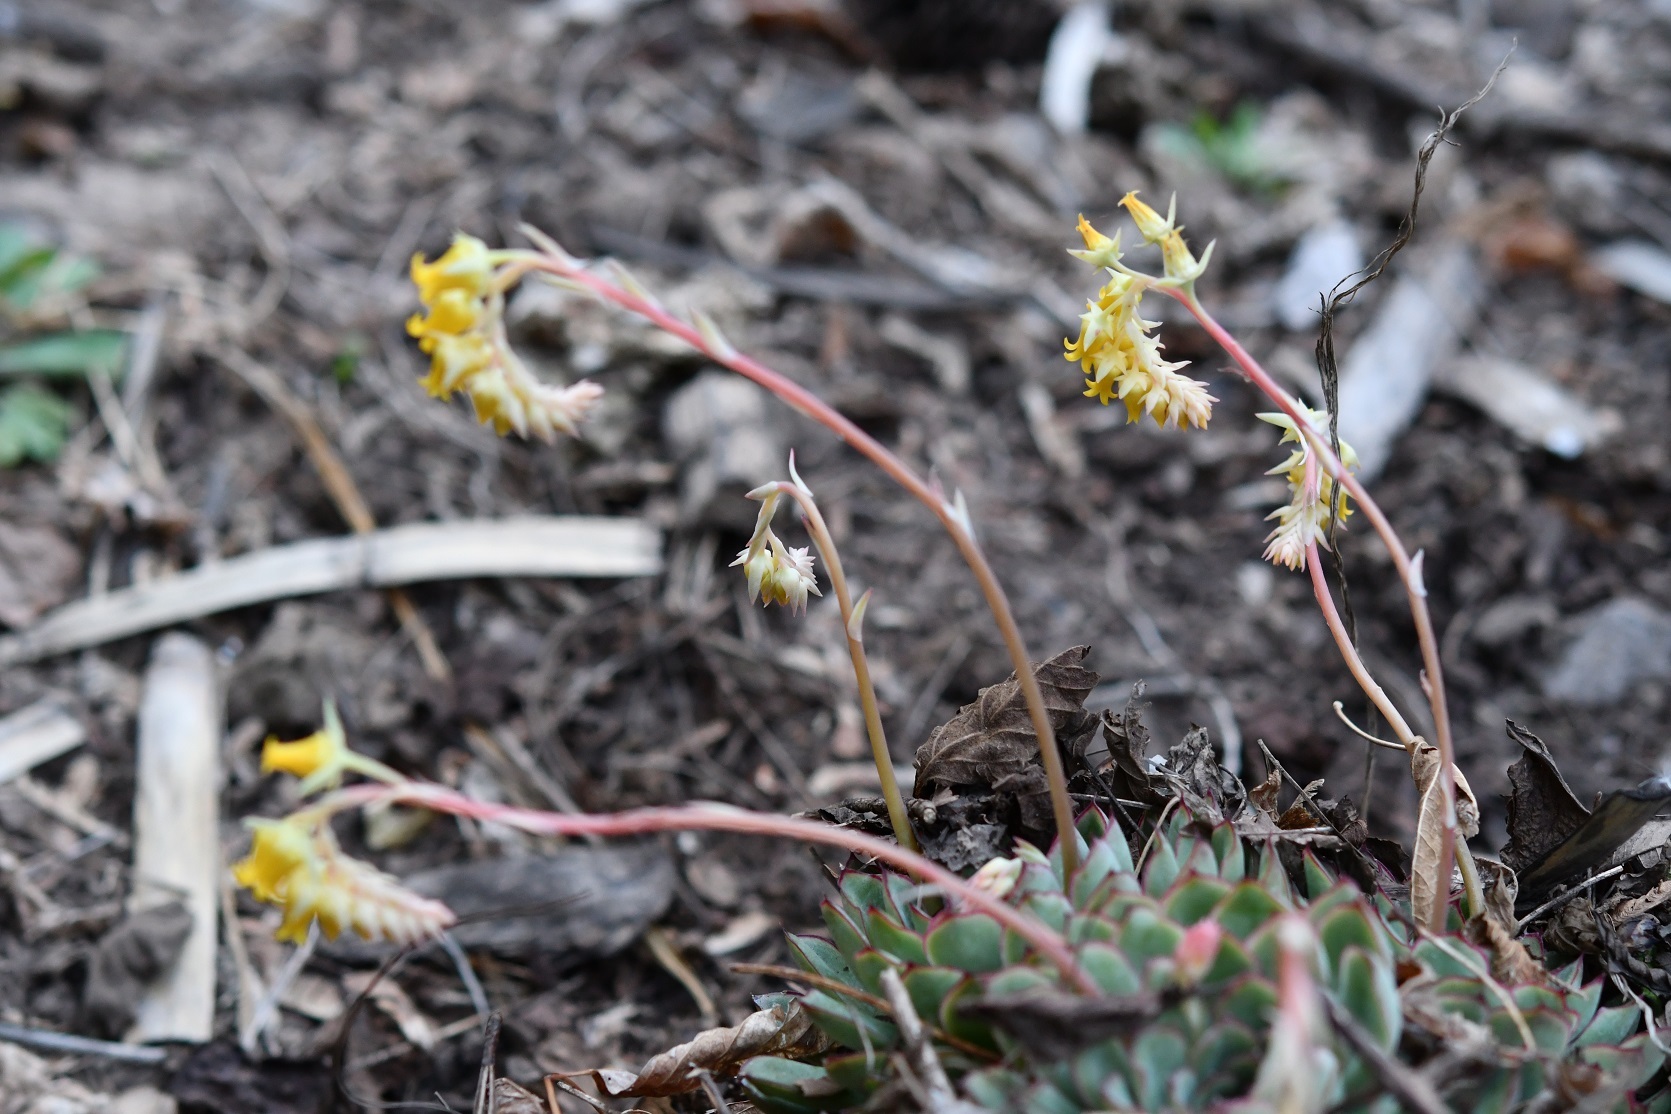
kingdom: Plantae
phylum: Tracheophyta
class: Magnoliopsida
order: Saxifragales
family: Crassulaceae
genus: Echeveria
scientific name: Echeveria pulidonis
